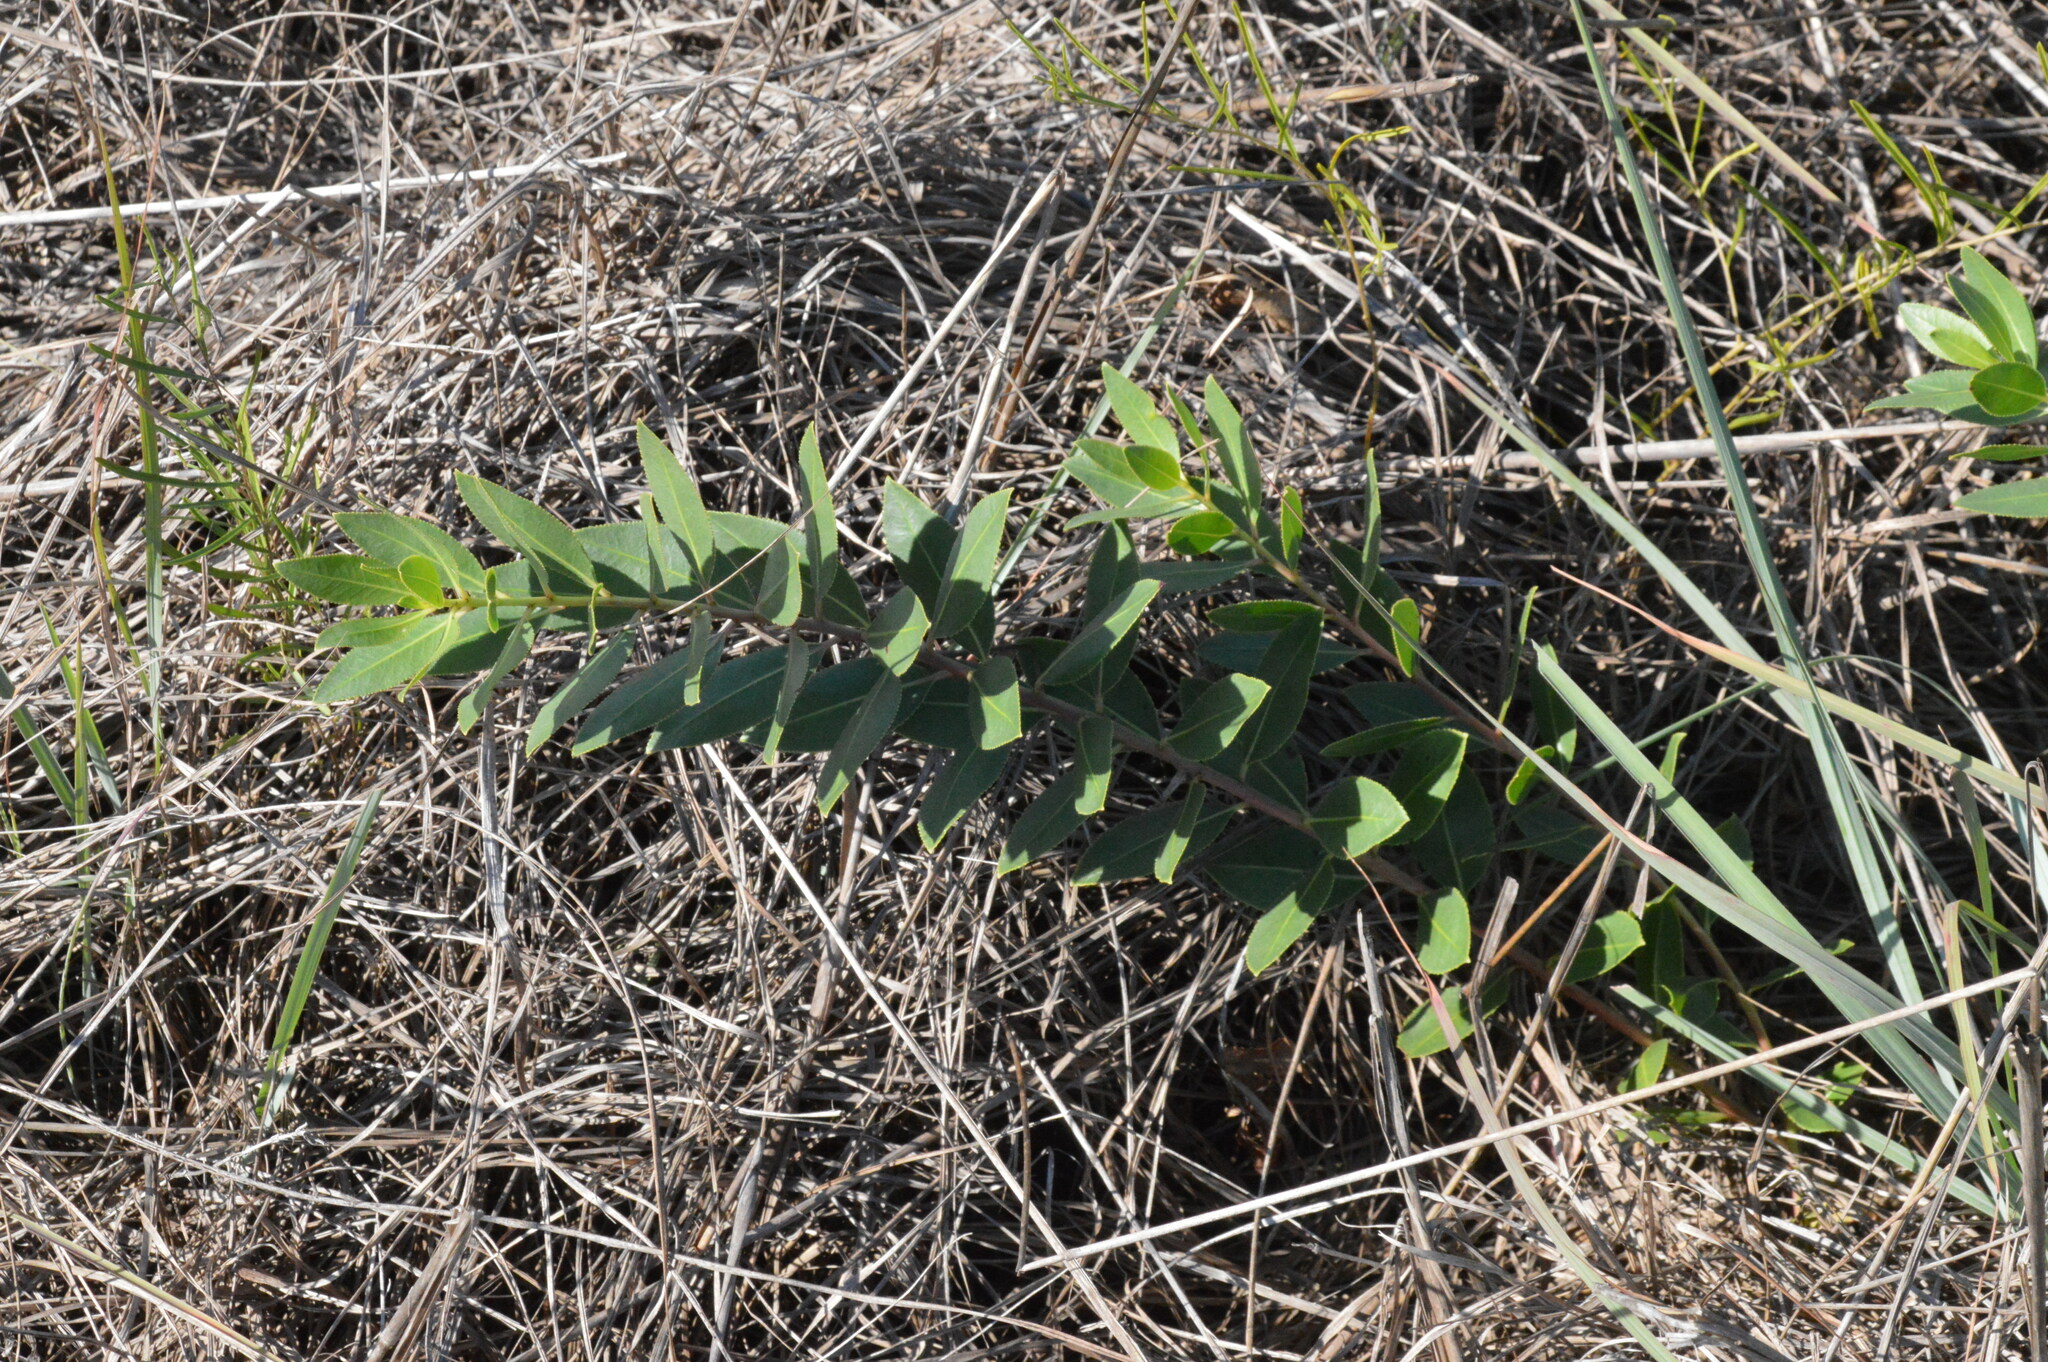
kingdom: Plantae
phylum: Tracheophyta
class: Magnoliopsida
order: Malpighiales
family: Euphorbiaceae
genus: Stillingia
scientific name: Stillingia sylvatica
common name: Queen's-delight
